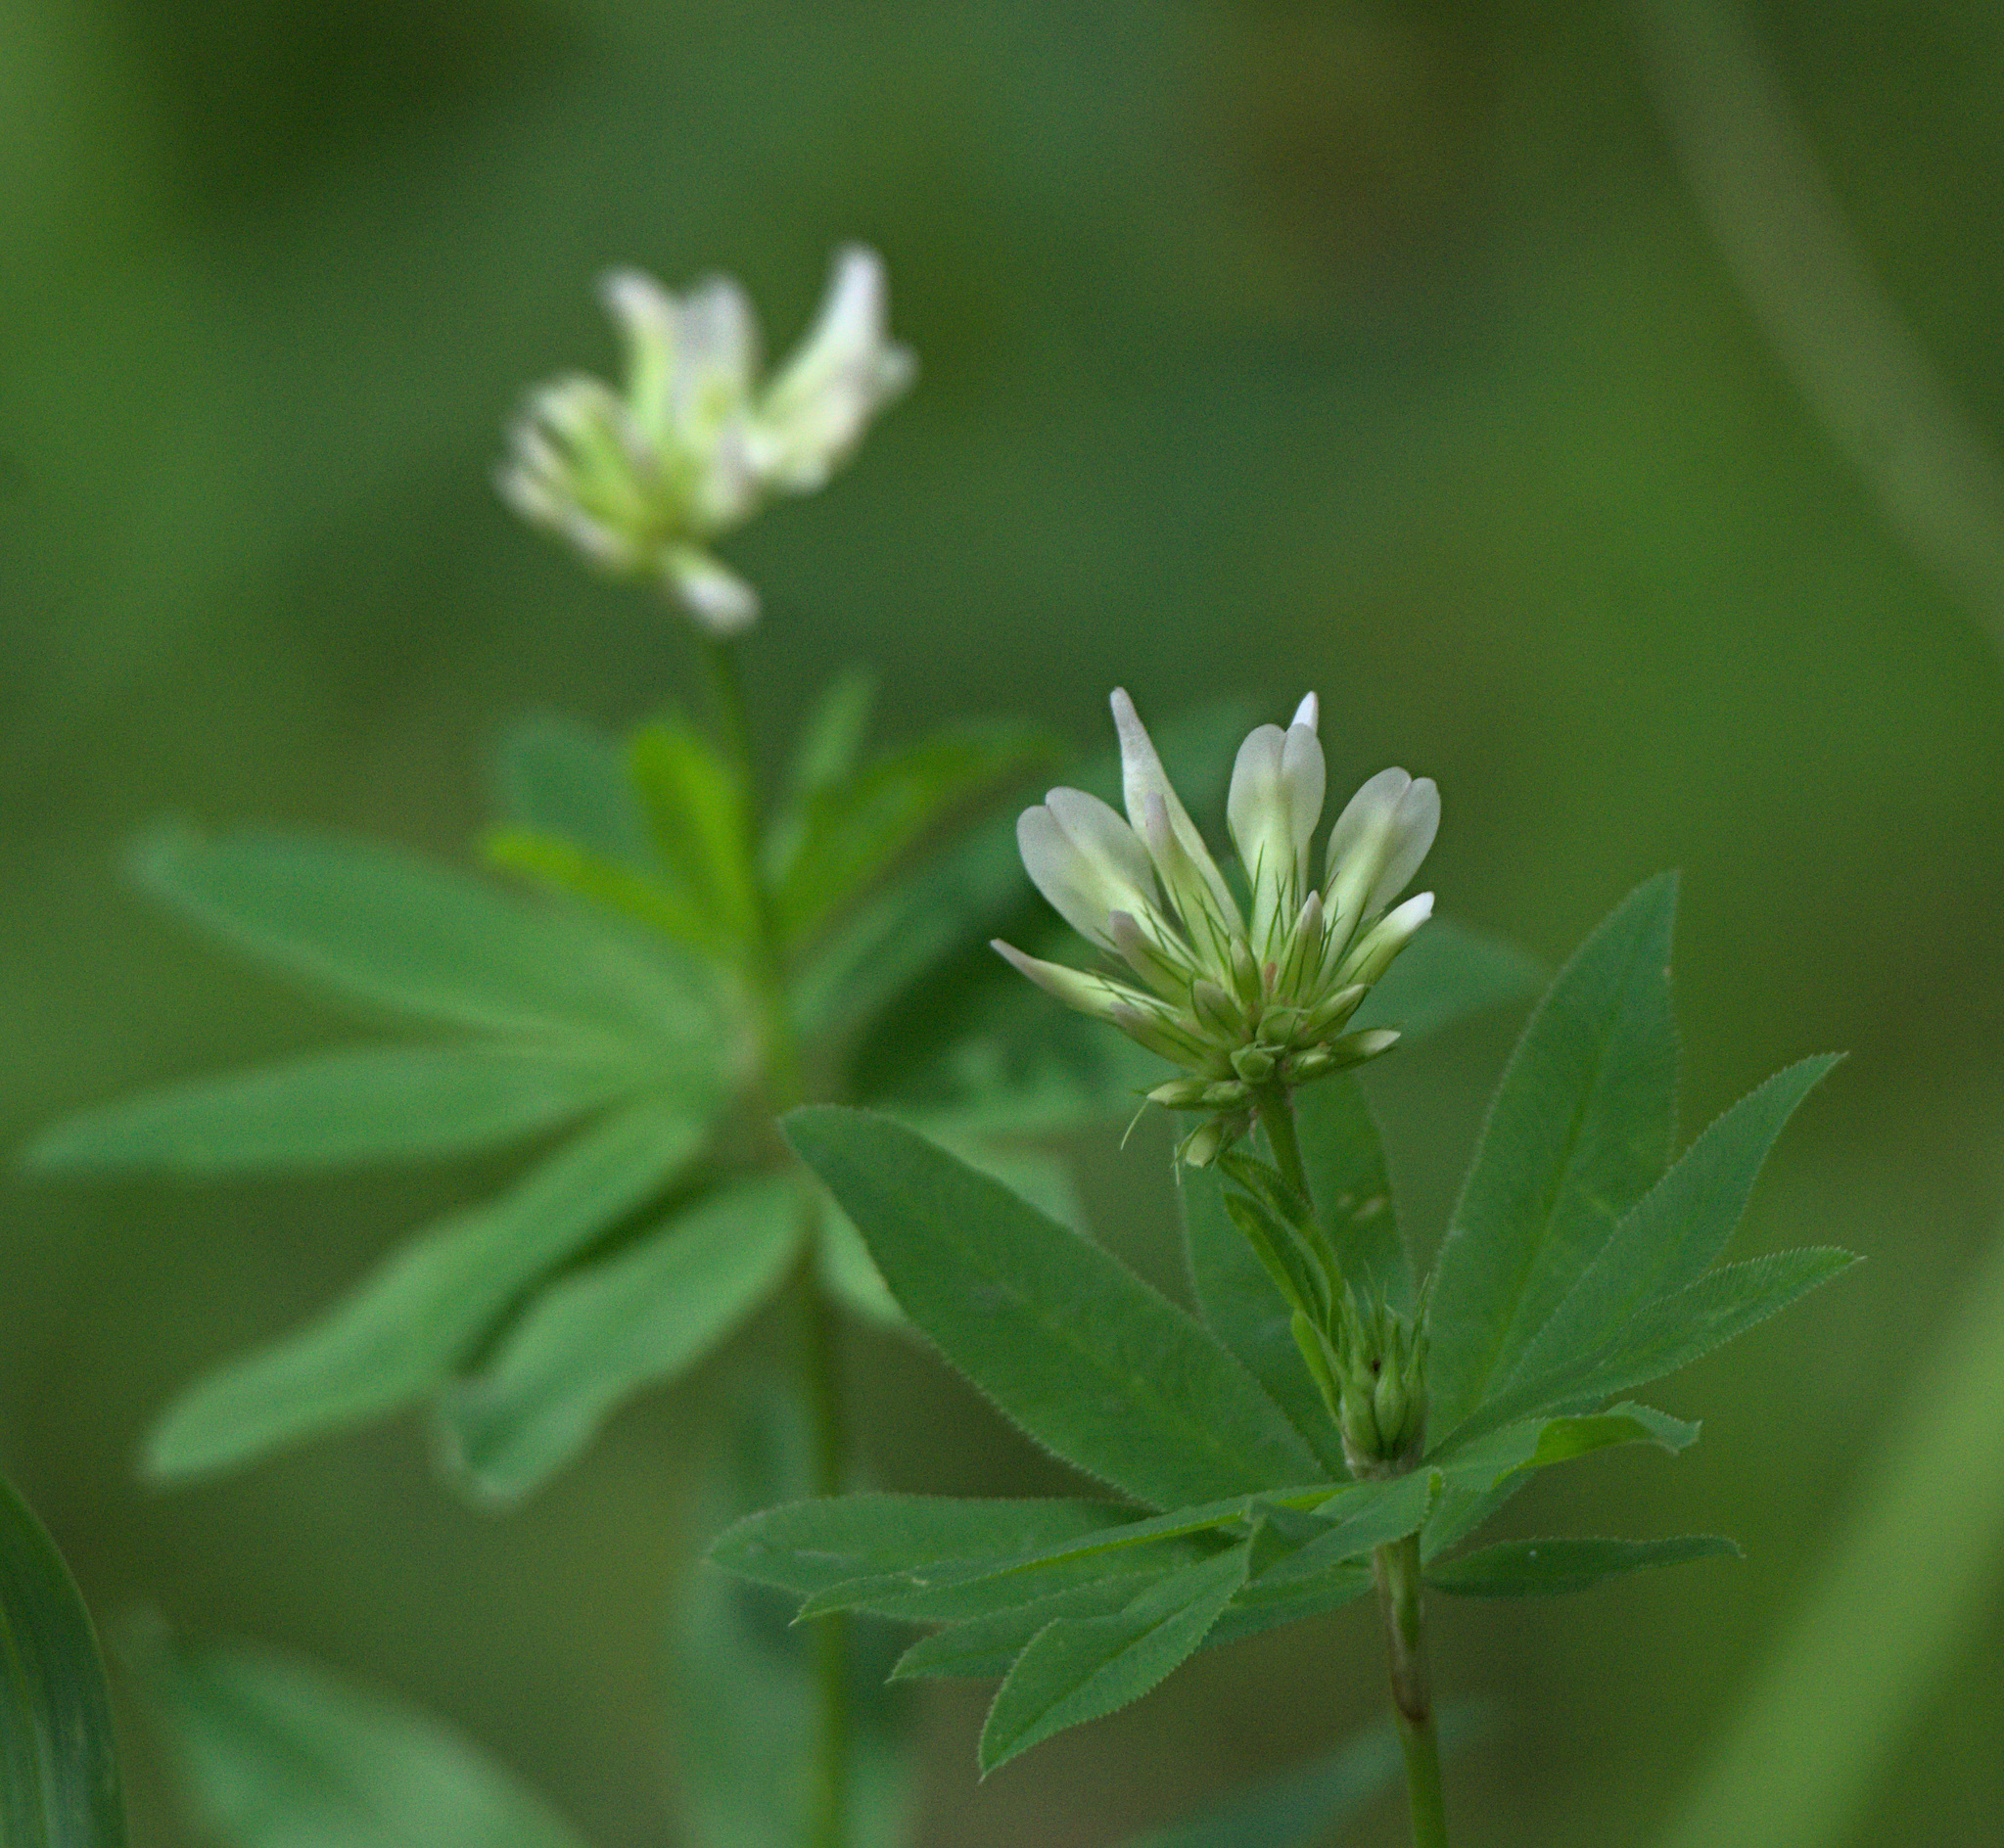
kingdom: Plantae
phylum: Tracheophyta
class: Magnoliopsida
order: Fabales
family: Fabaceae
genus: Trifolium
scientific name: Trifolium lupinaster
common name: Lupine clover
